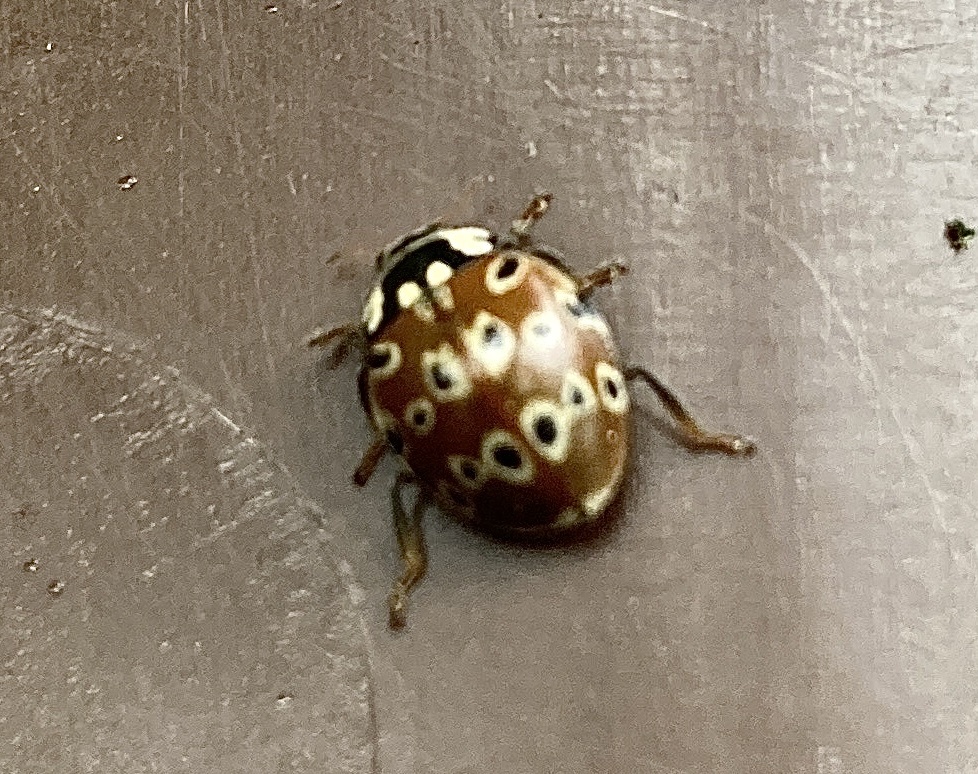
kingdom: Animalia
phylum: Arthropoda
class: Insecta
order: Coleoptera
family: Coccinellidae
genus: Anatis
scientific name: Anatis mali
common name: Eye-spotted lady beetle
